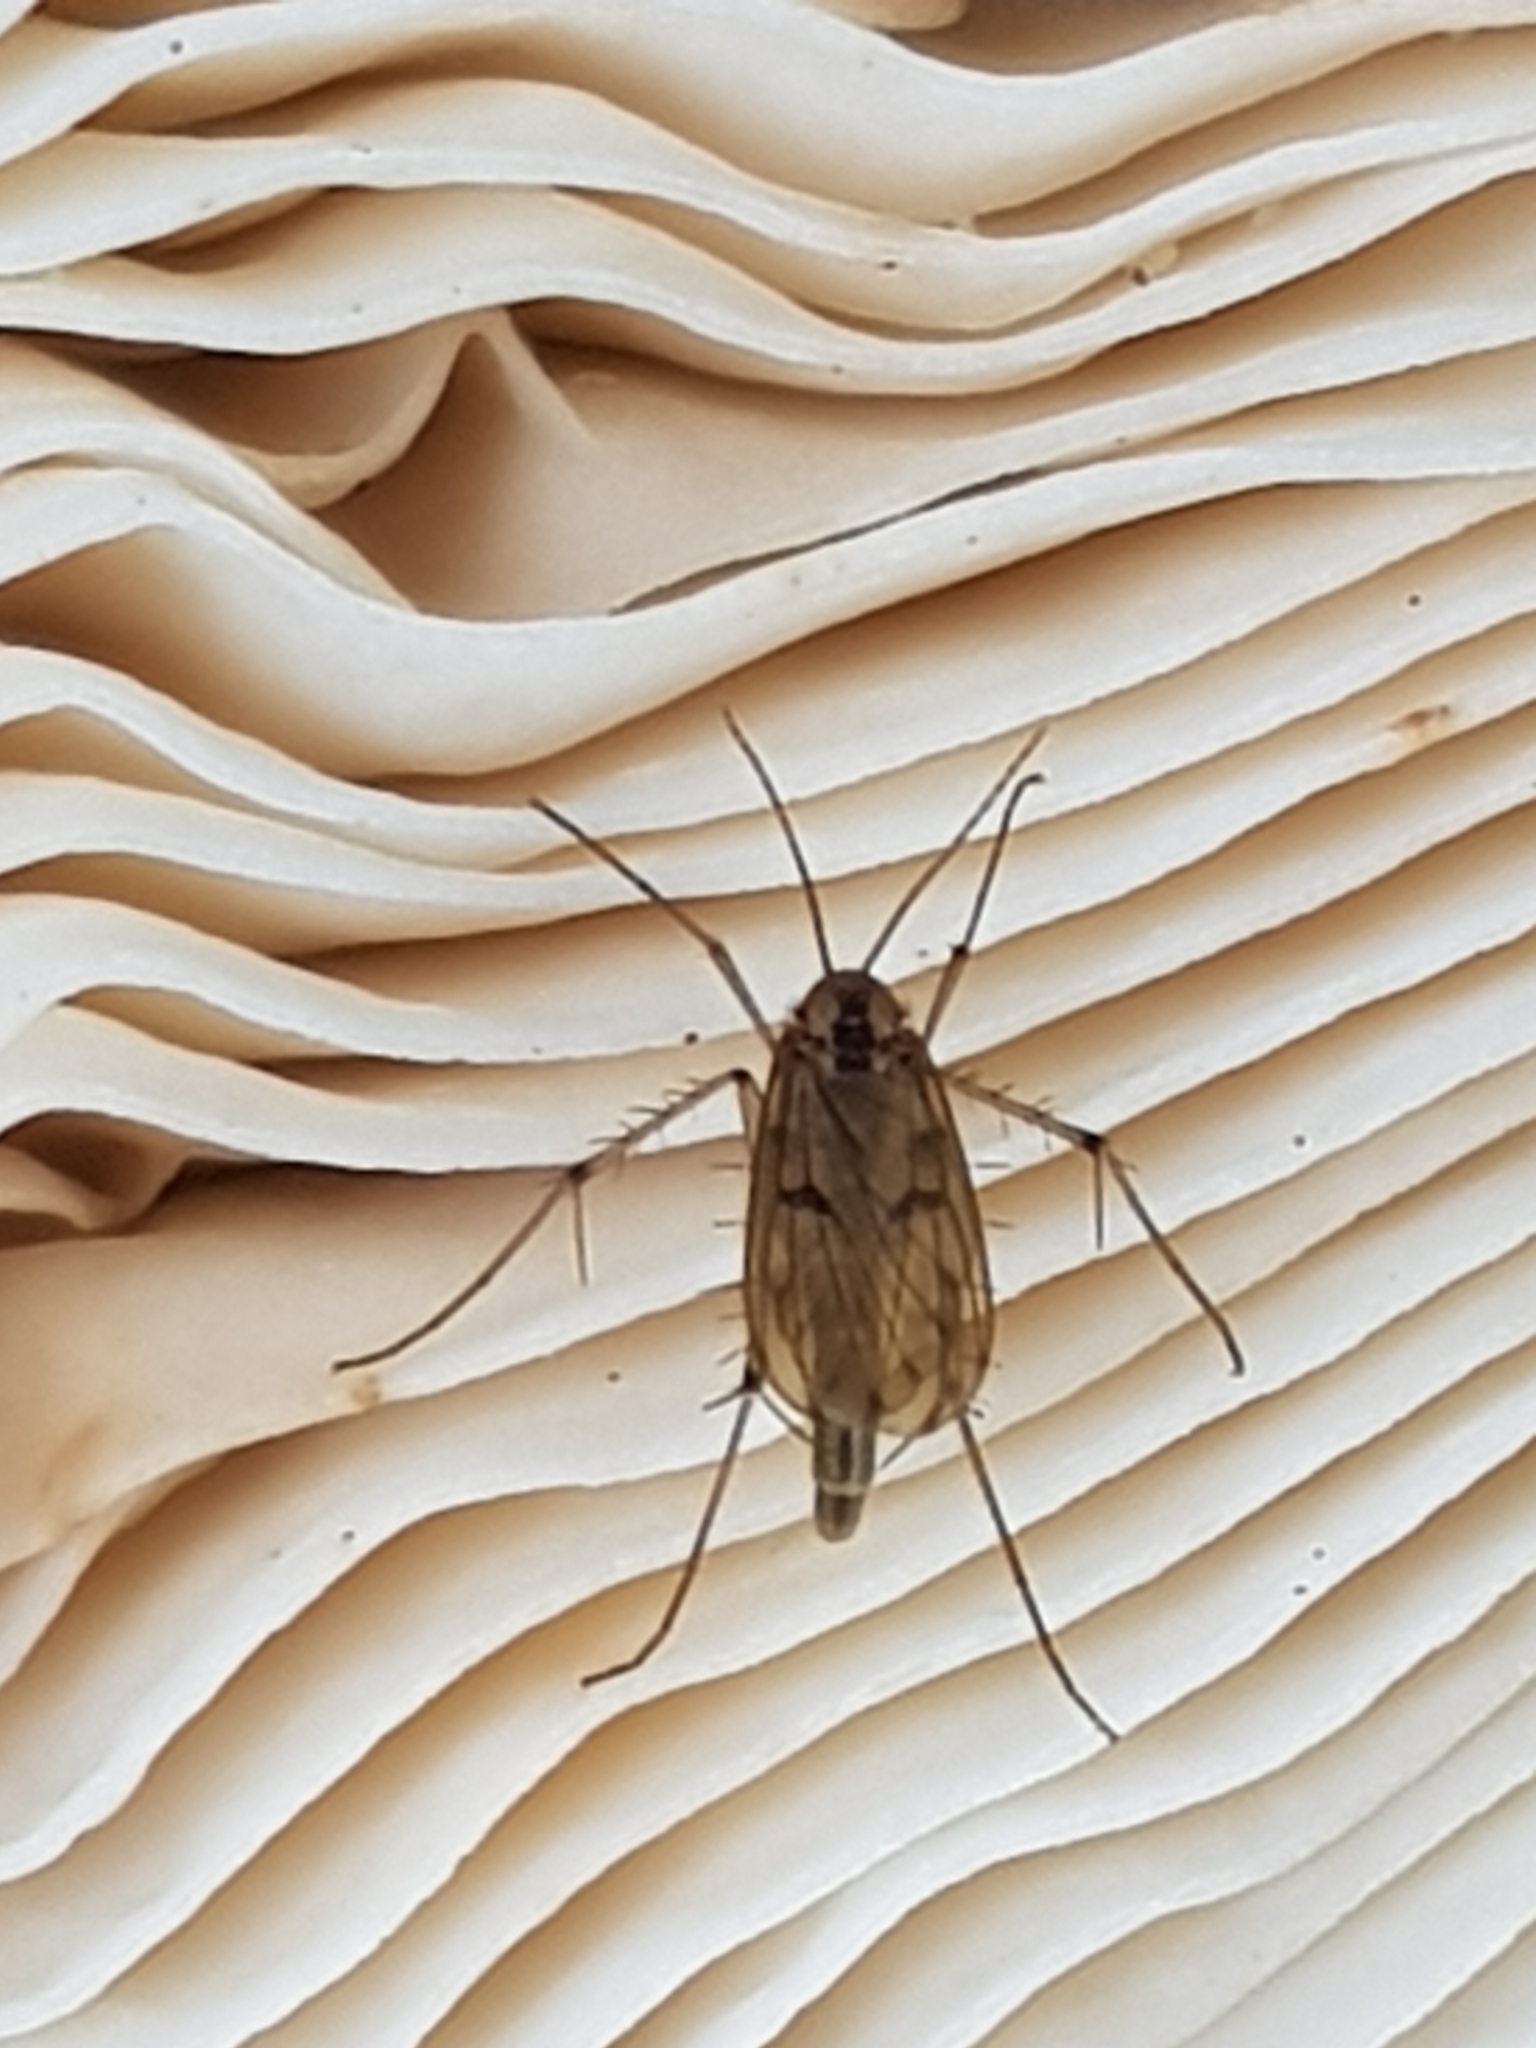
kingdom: Animalia
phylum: Arthropoda
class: Insecta
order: Diptera
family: Mycetophilidae
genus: Mycetophila
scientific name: Mycetophila marginepunctata
